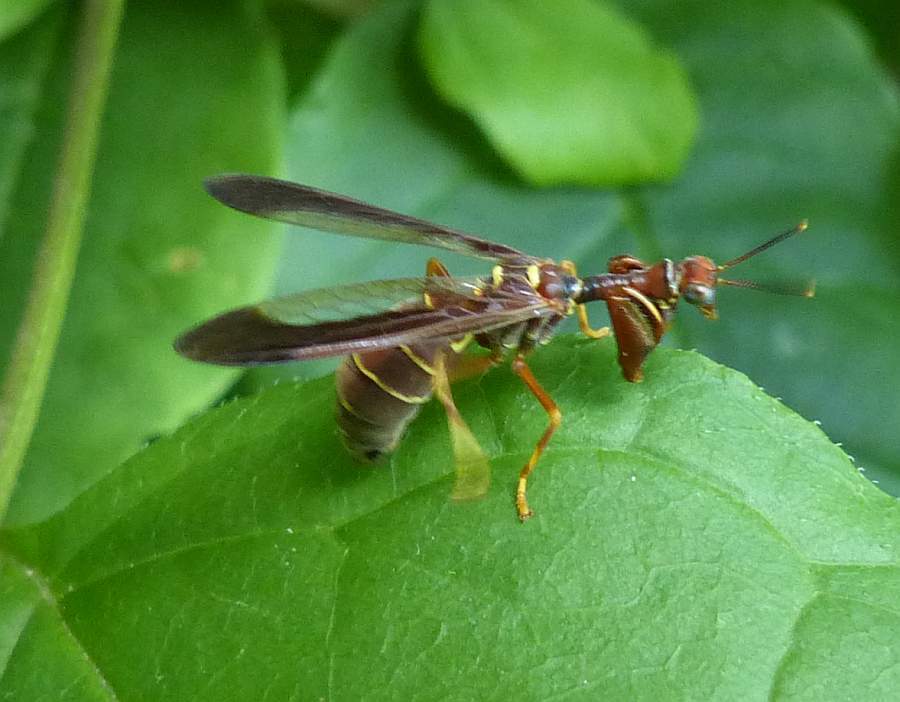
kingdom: Animalia
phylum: Arthropoda
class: Insecta
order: Neuroptera
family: Mantispidae
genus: Climaciella
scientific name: Climaciella brunnea
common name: Brown wasp mantidfly
